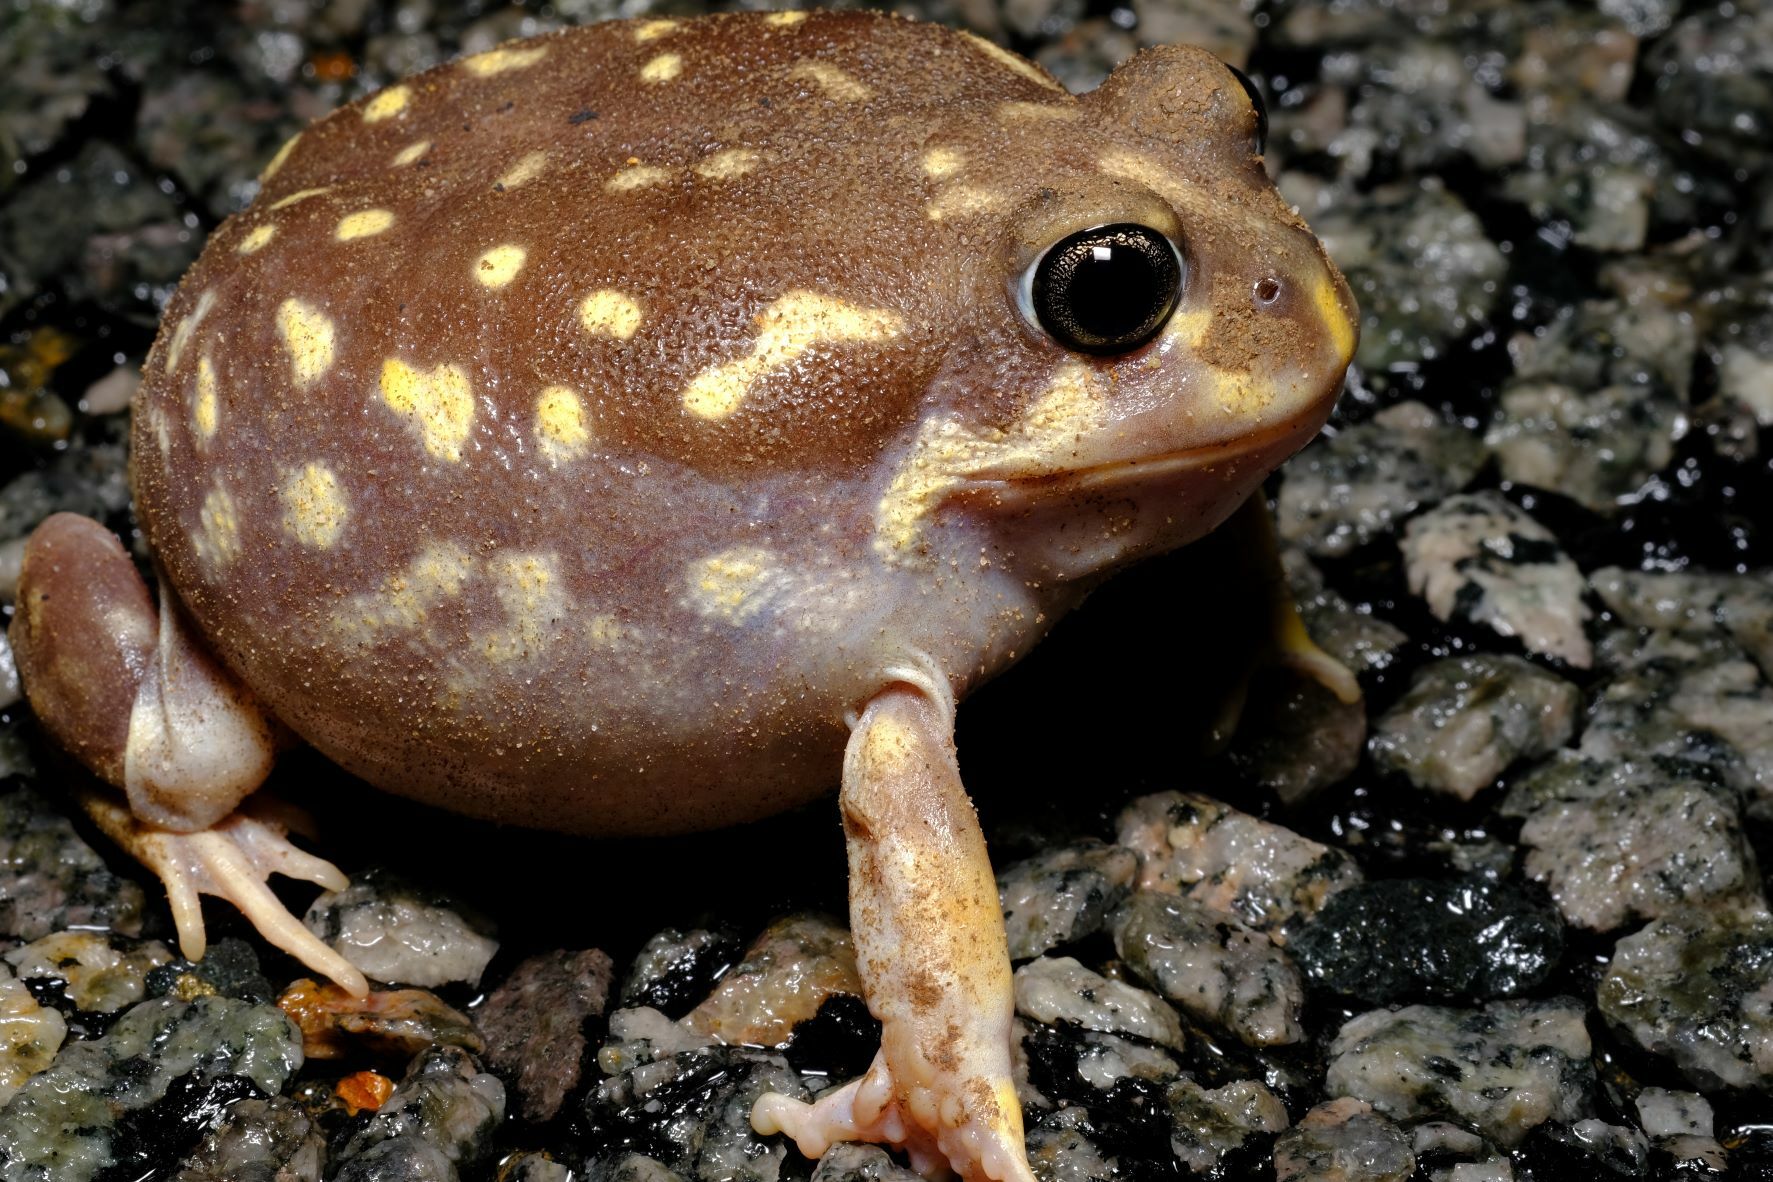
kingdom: Animalia
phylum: Chordata
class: Amphibia
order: Anura
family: Limnodynastidae
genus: Heleioporus
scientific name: Heleioporus albopunctatus
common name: Western spotted frog
